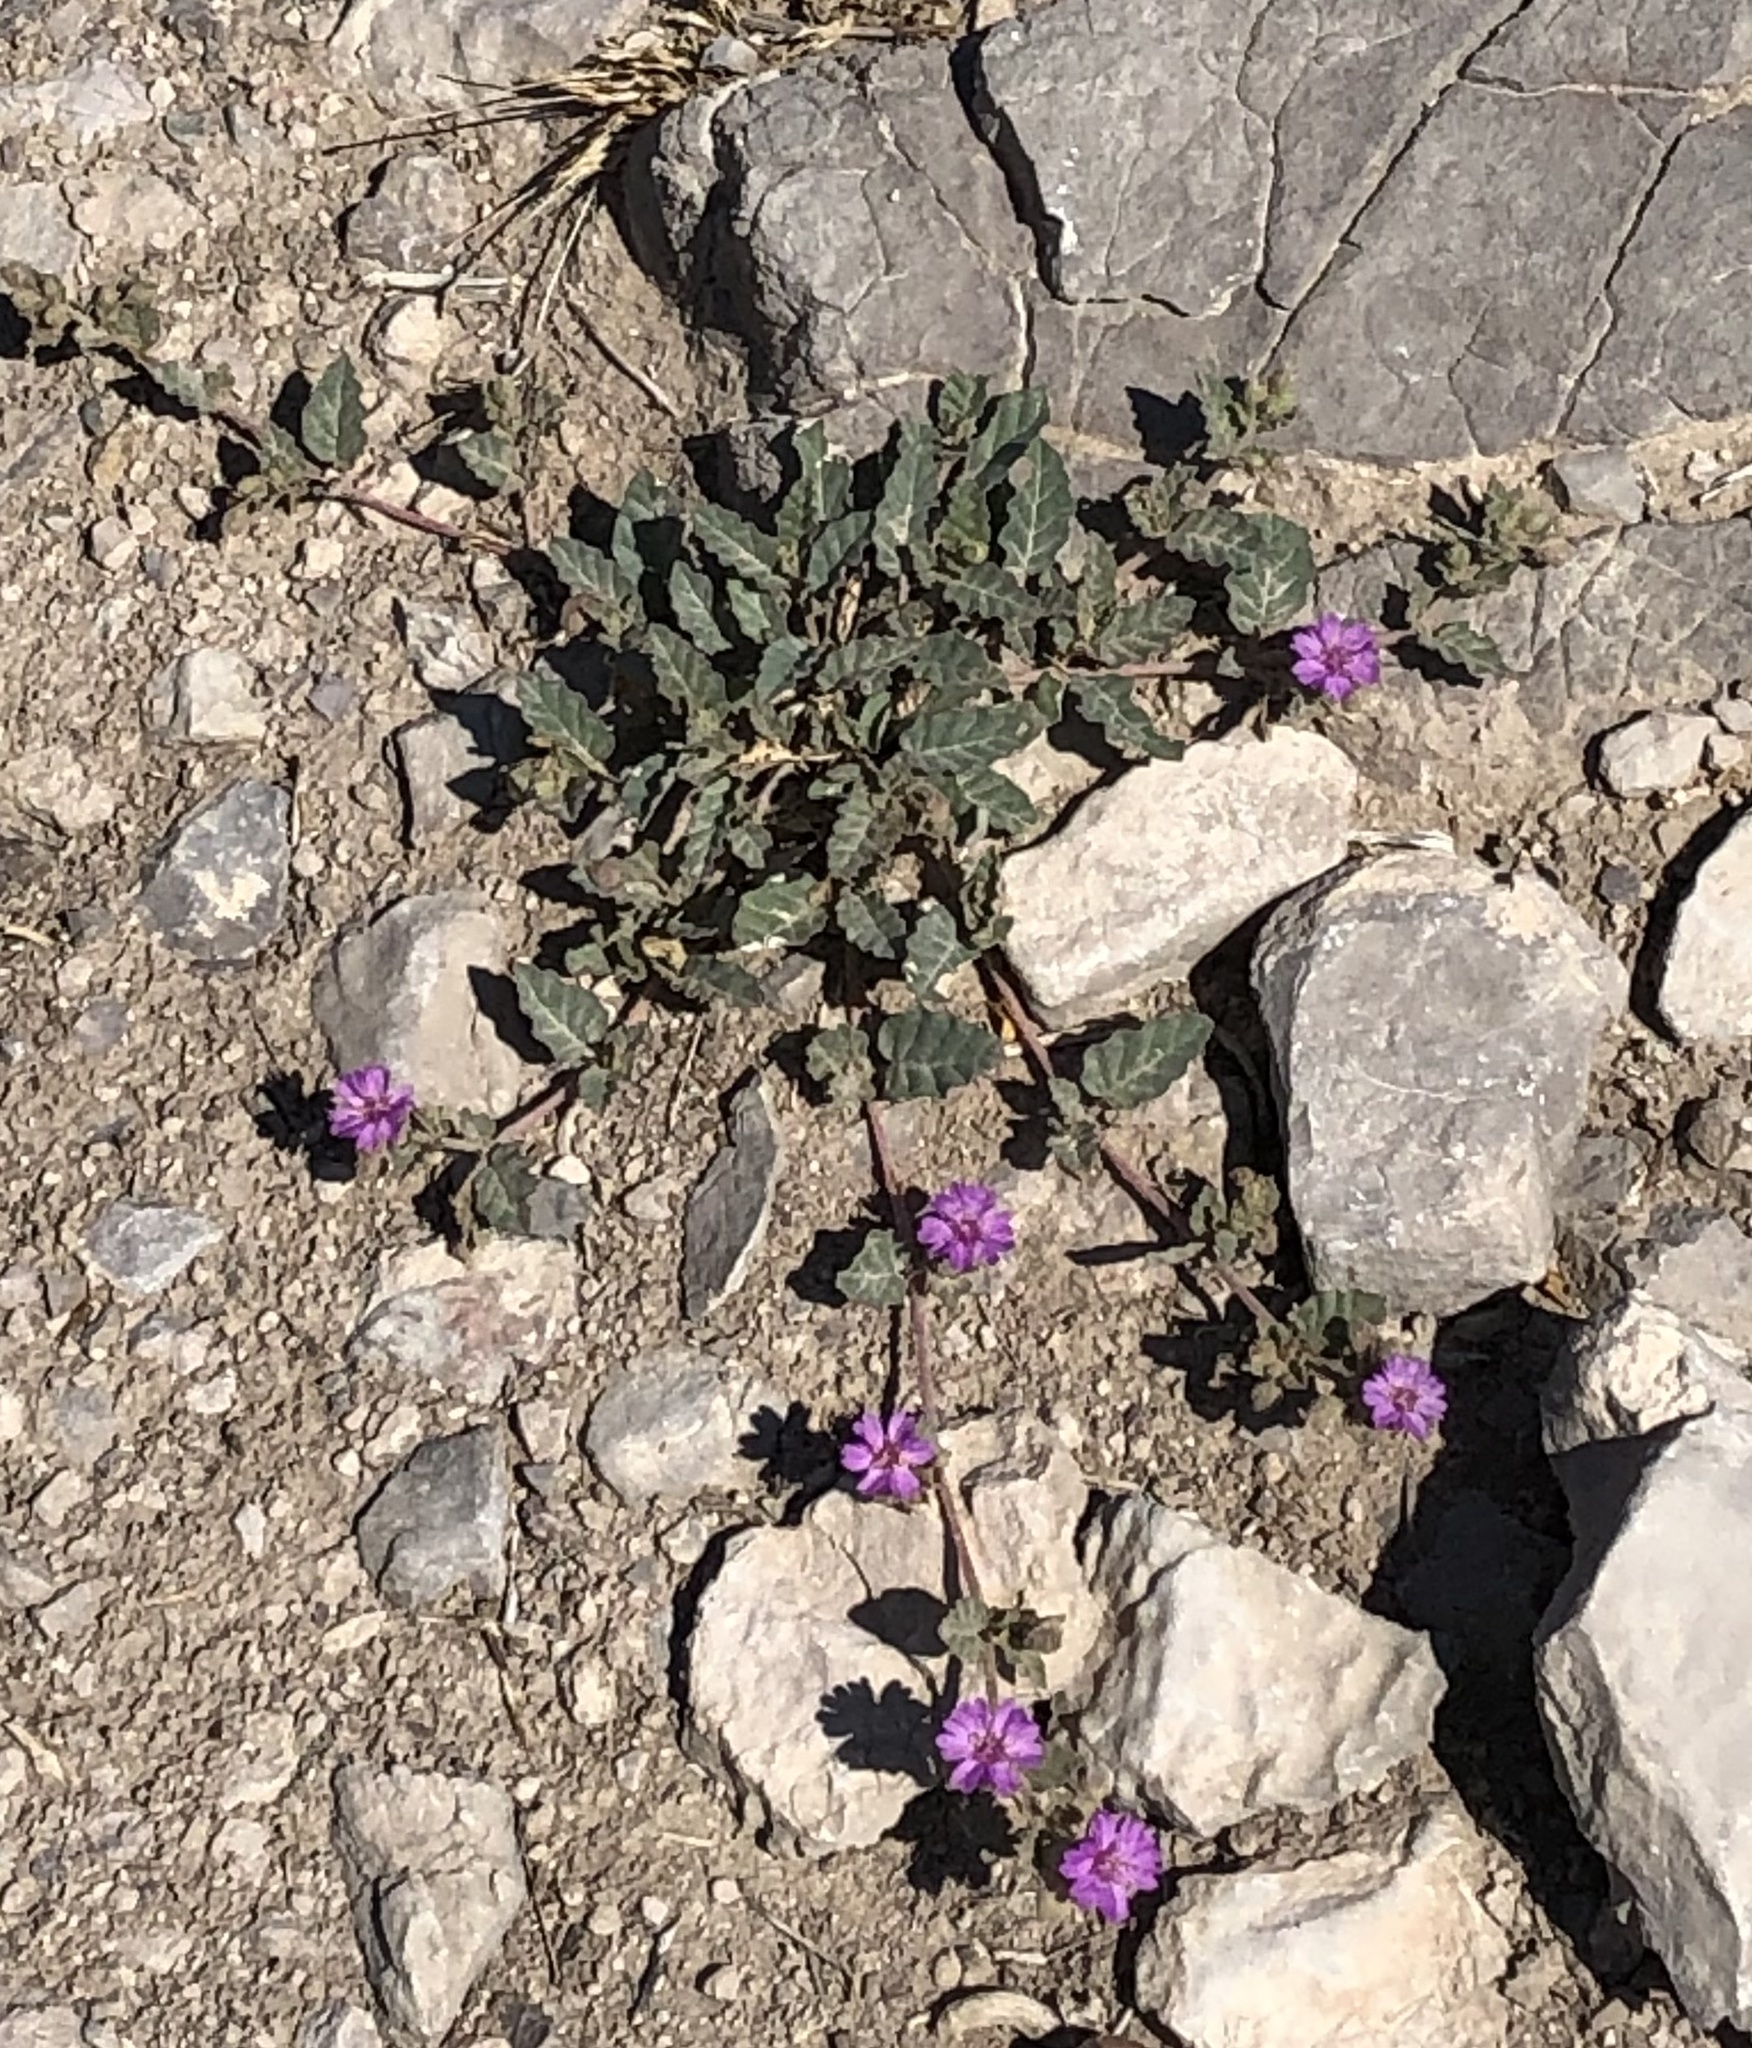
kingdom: Plantae
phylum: Tracheophyta
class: Magnoliopsida
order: Caryophyllales
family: Nyctaginaceae
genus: Allionia
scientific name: Allionia incarnata
